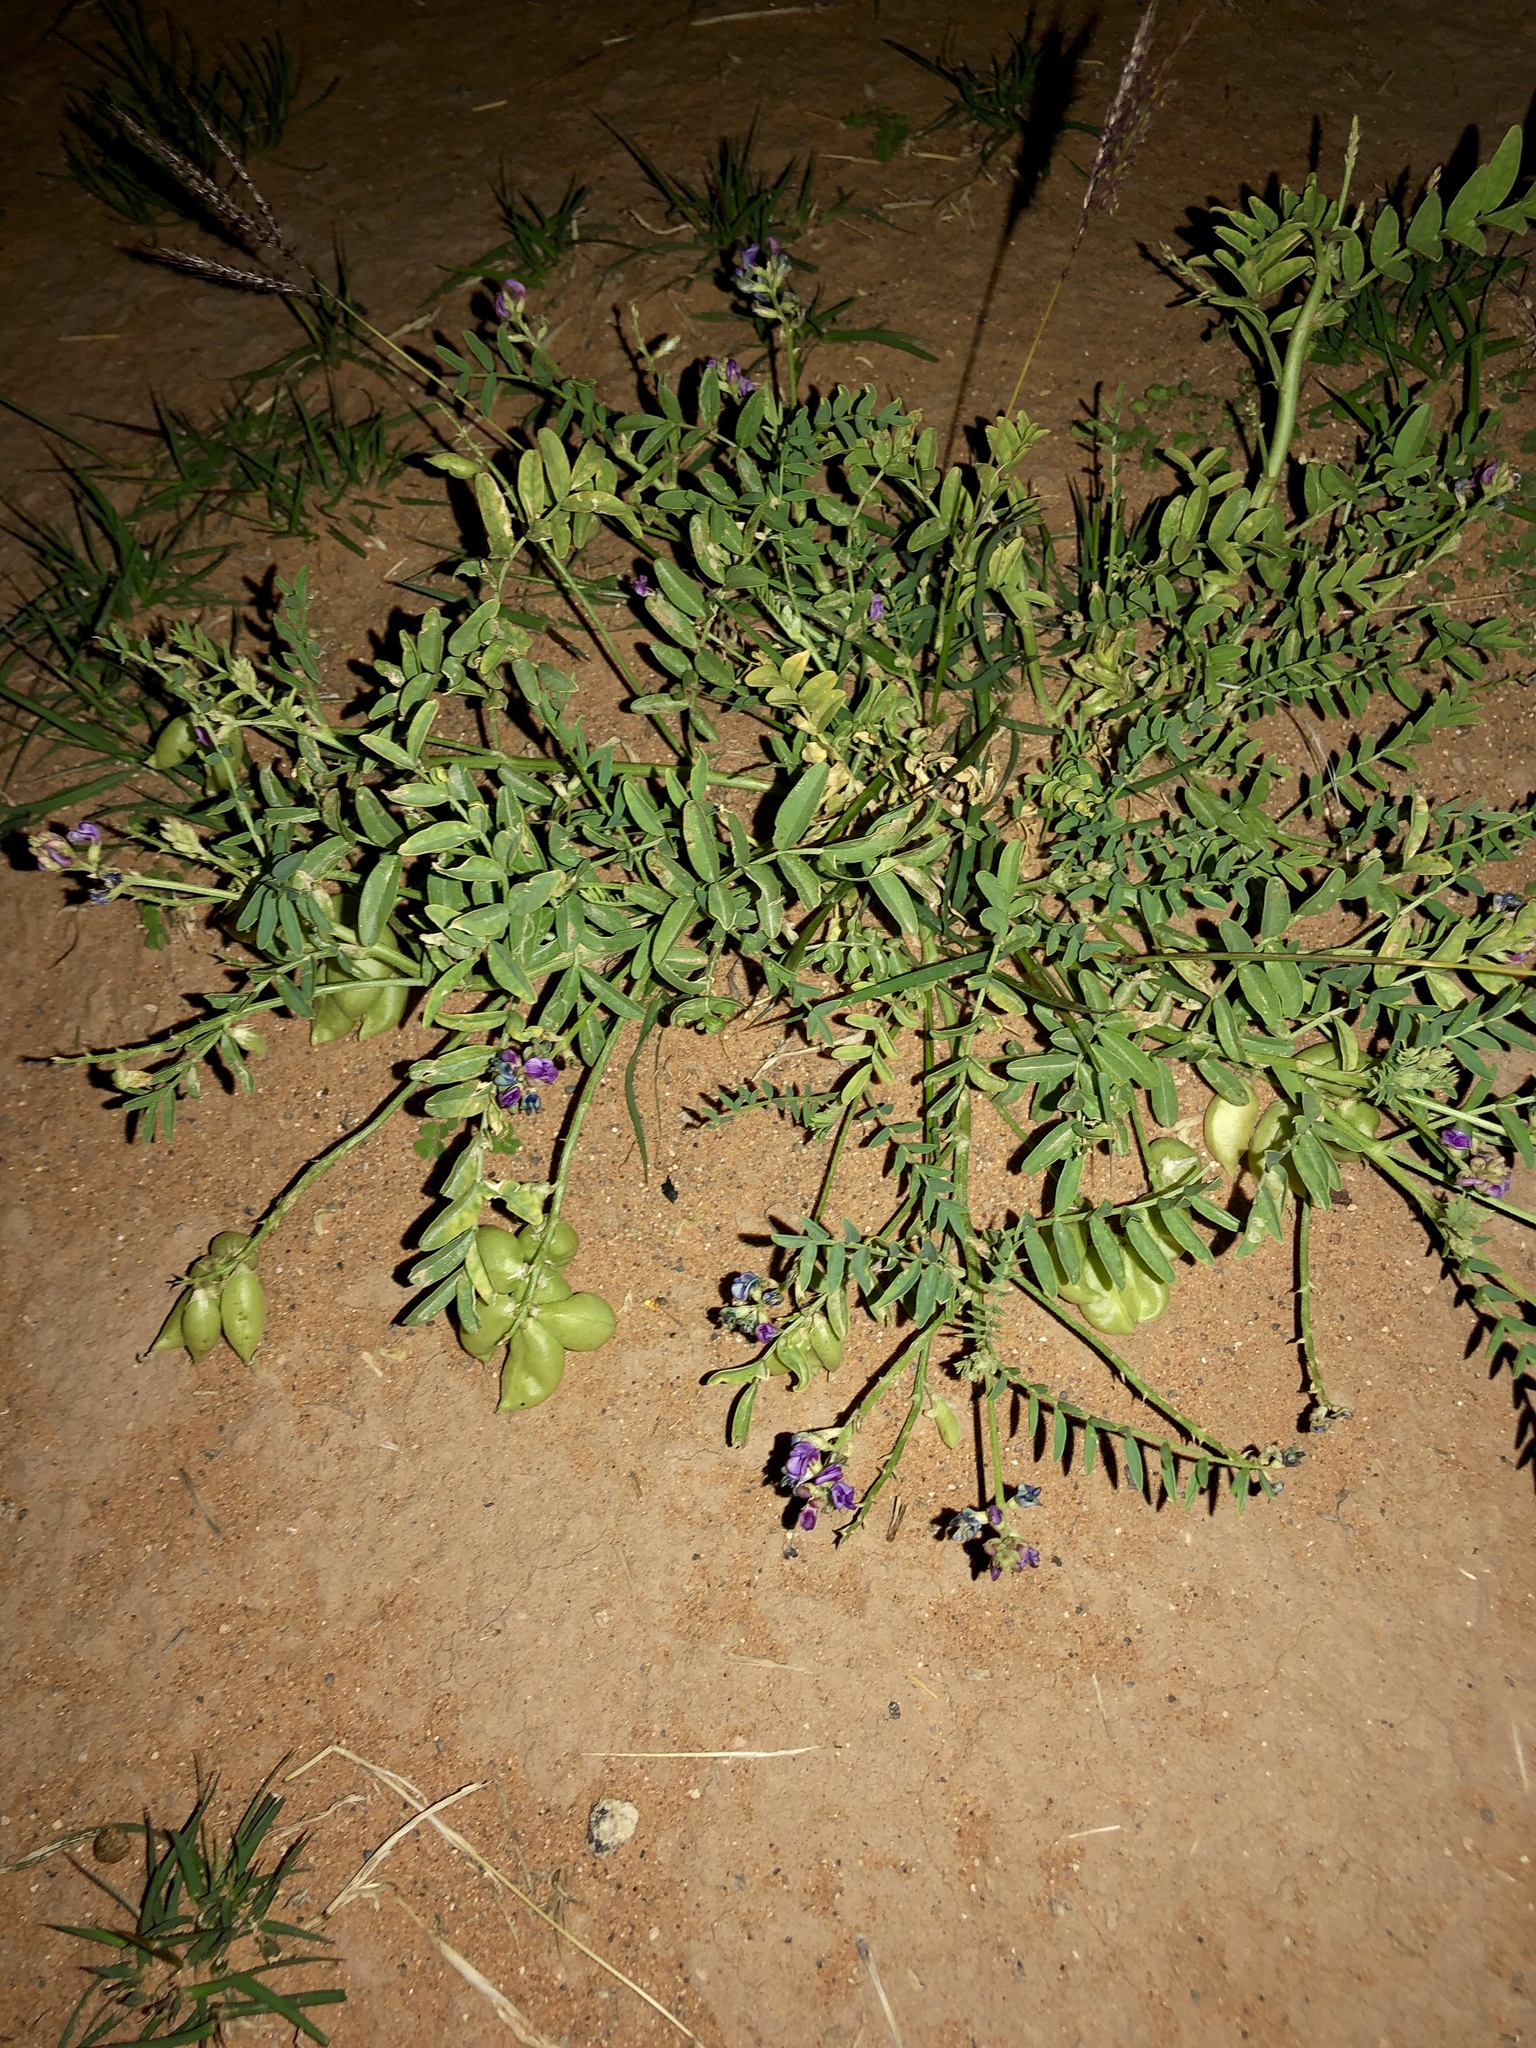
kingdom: Plantae
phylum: Tracheophyta
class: Magnoliopsida
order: Fabales
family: Fabaceae
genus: Astragalus
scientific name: Astragalus wootonii
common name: Wooton's milk-vetch
